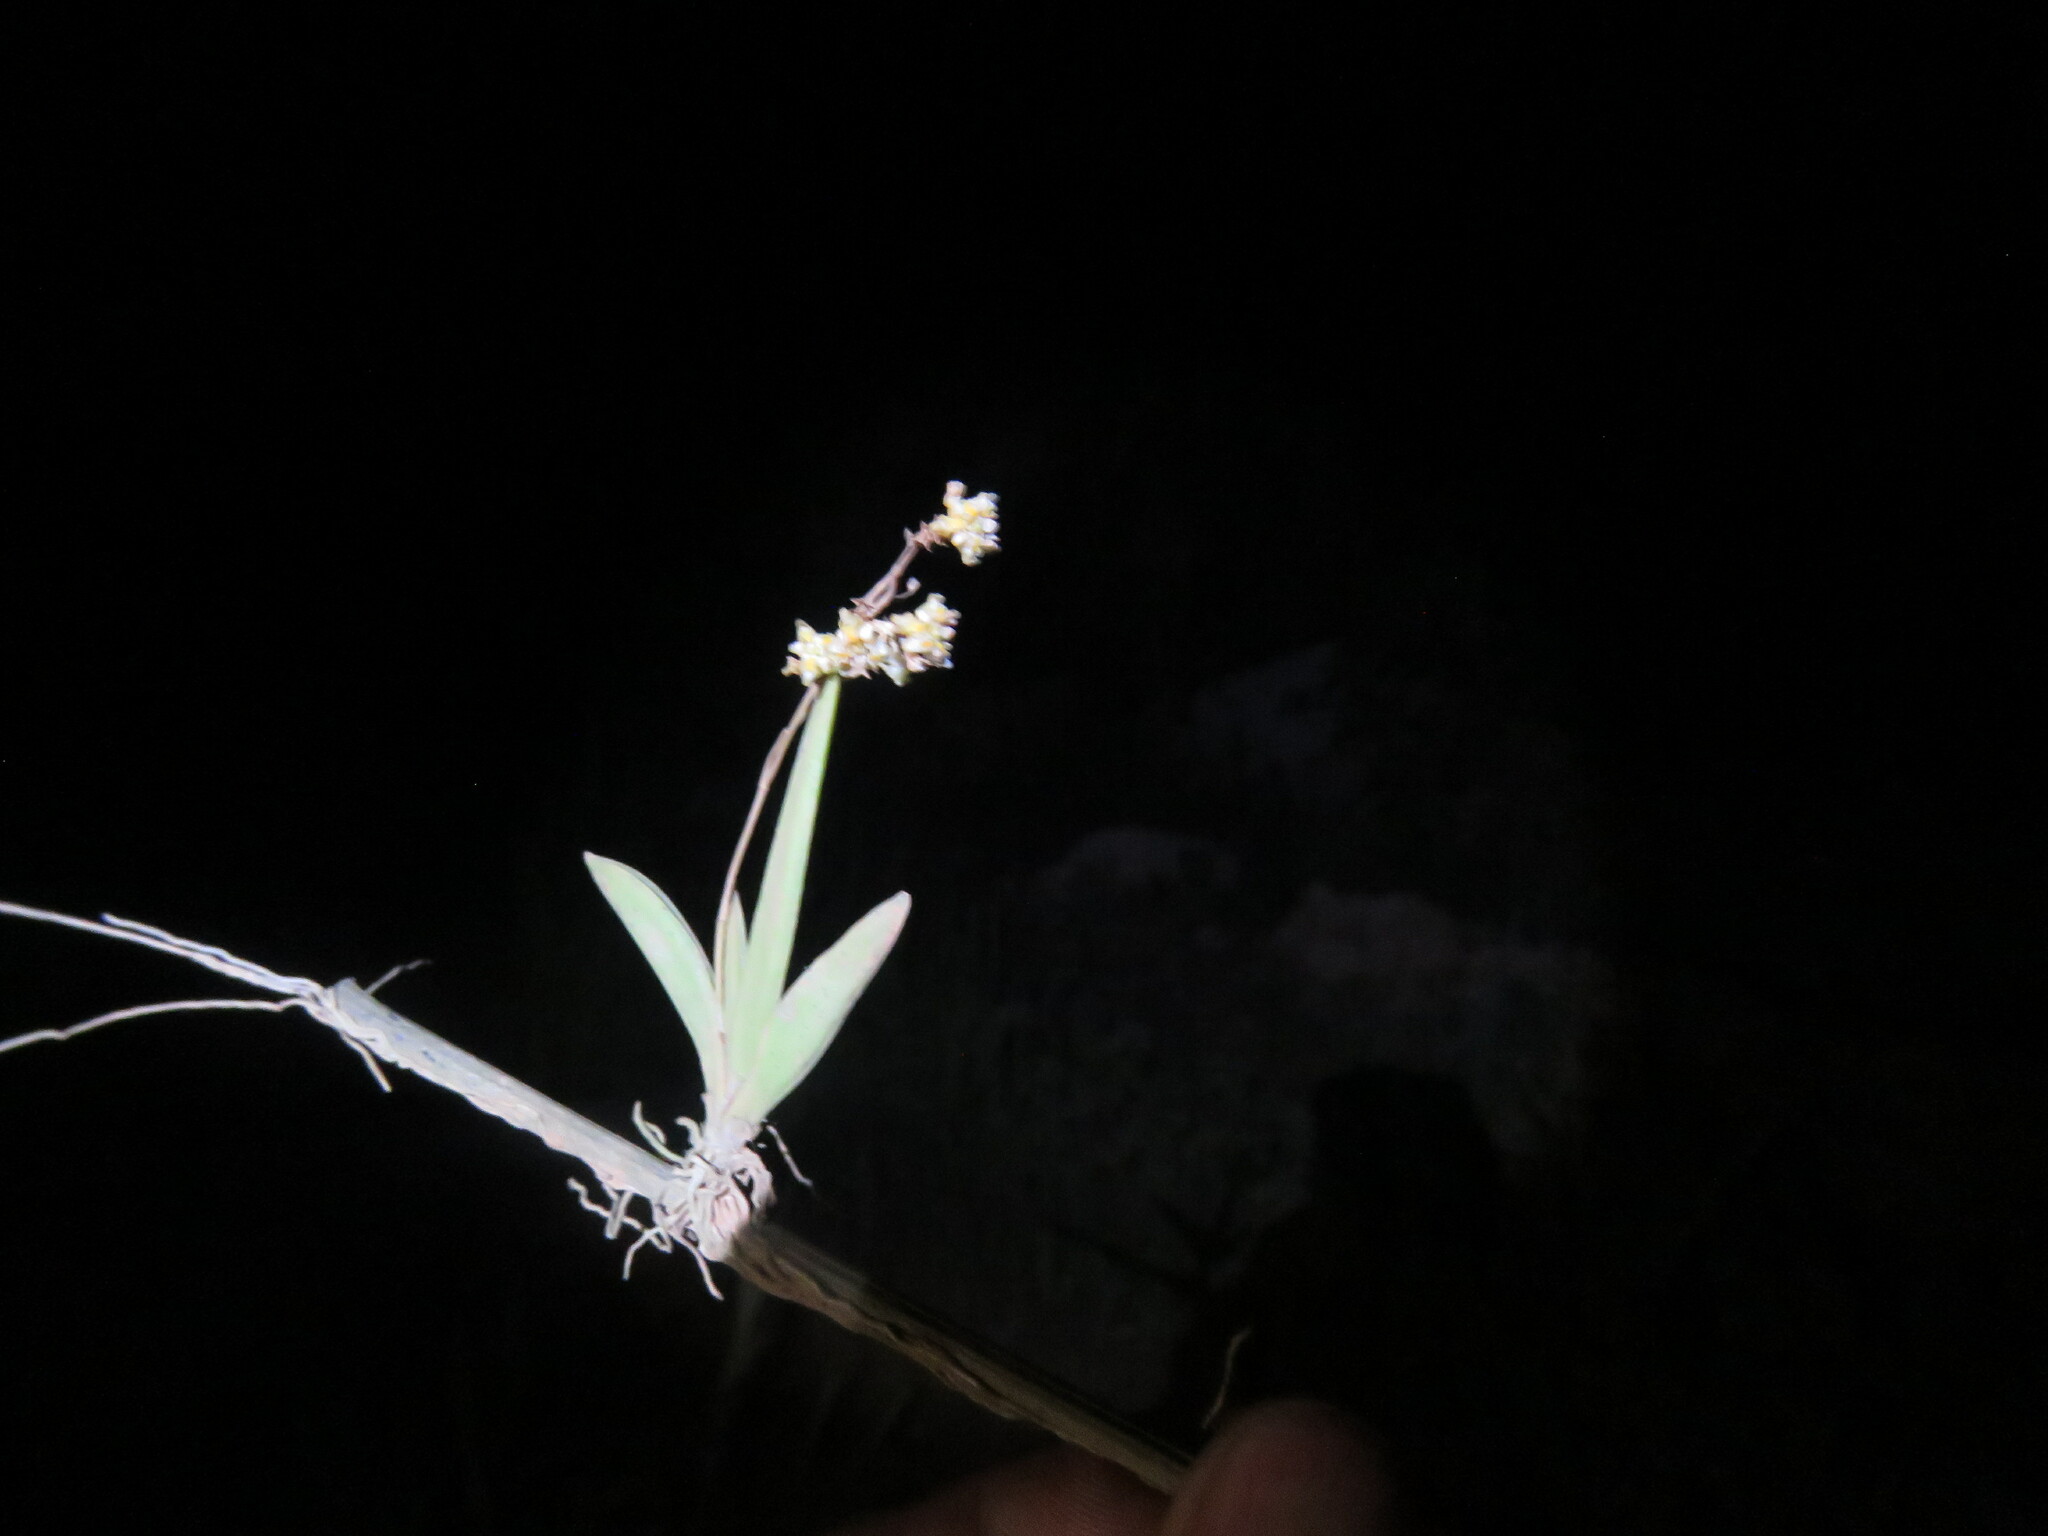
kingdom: Plantae
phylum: Tracheophyta
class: Liliopsida
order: Asparagales
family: Orchidaceae
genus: Trizeuxis
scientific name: Trizeuxis falcata
